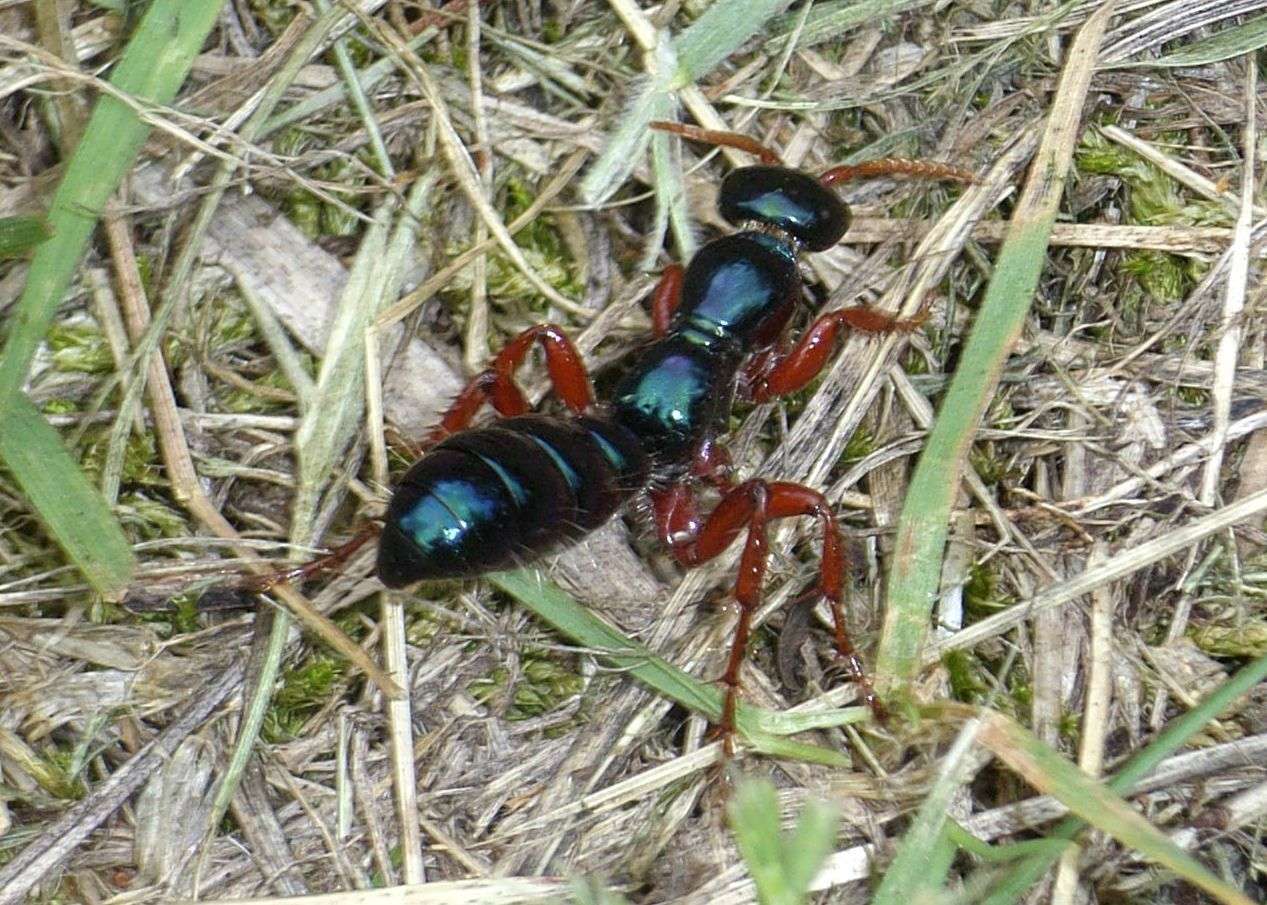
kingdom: Animalia
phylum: Arthropoda
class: Insecta
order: Hymenoptera
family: Tiphiidae
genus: Diamma
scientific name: Diamma
